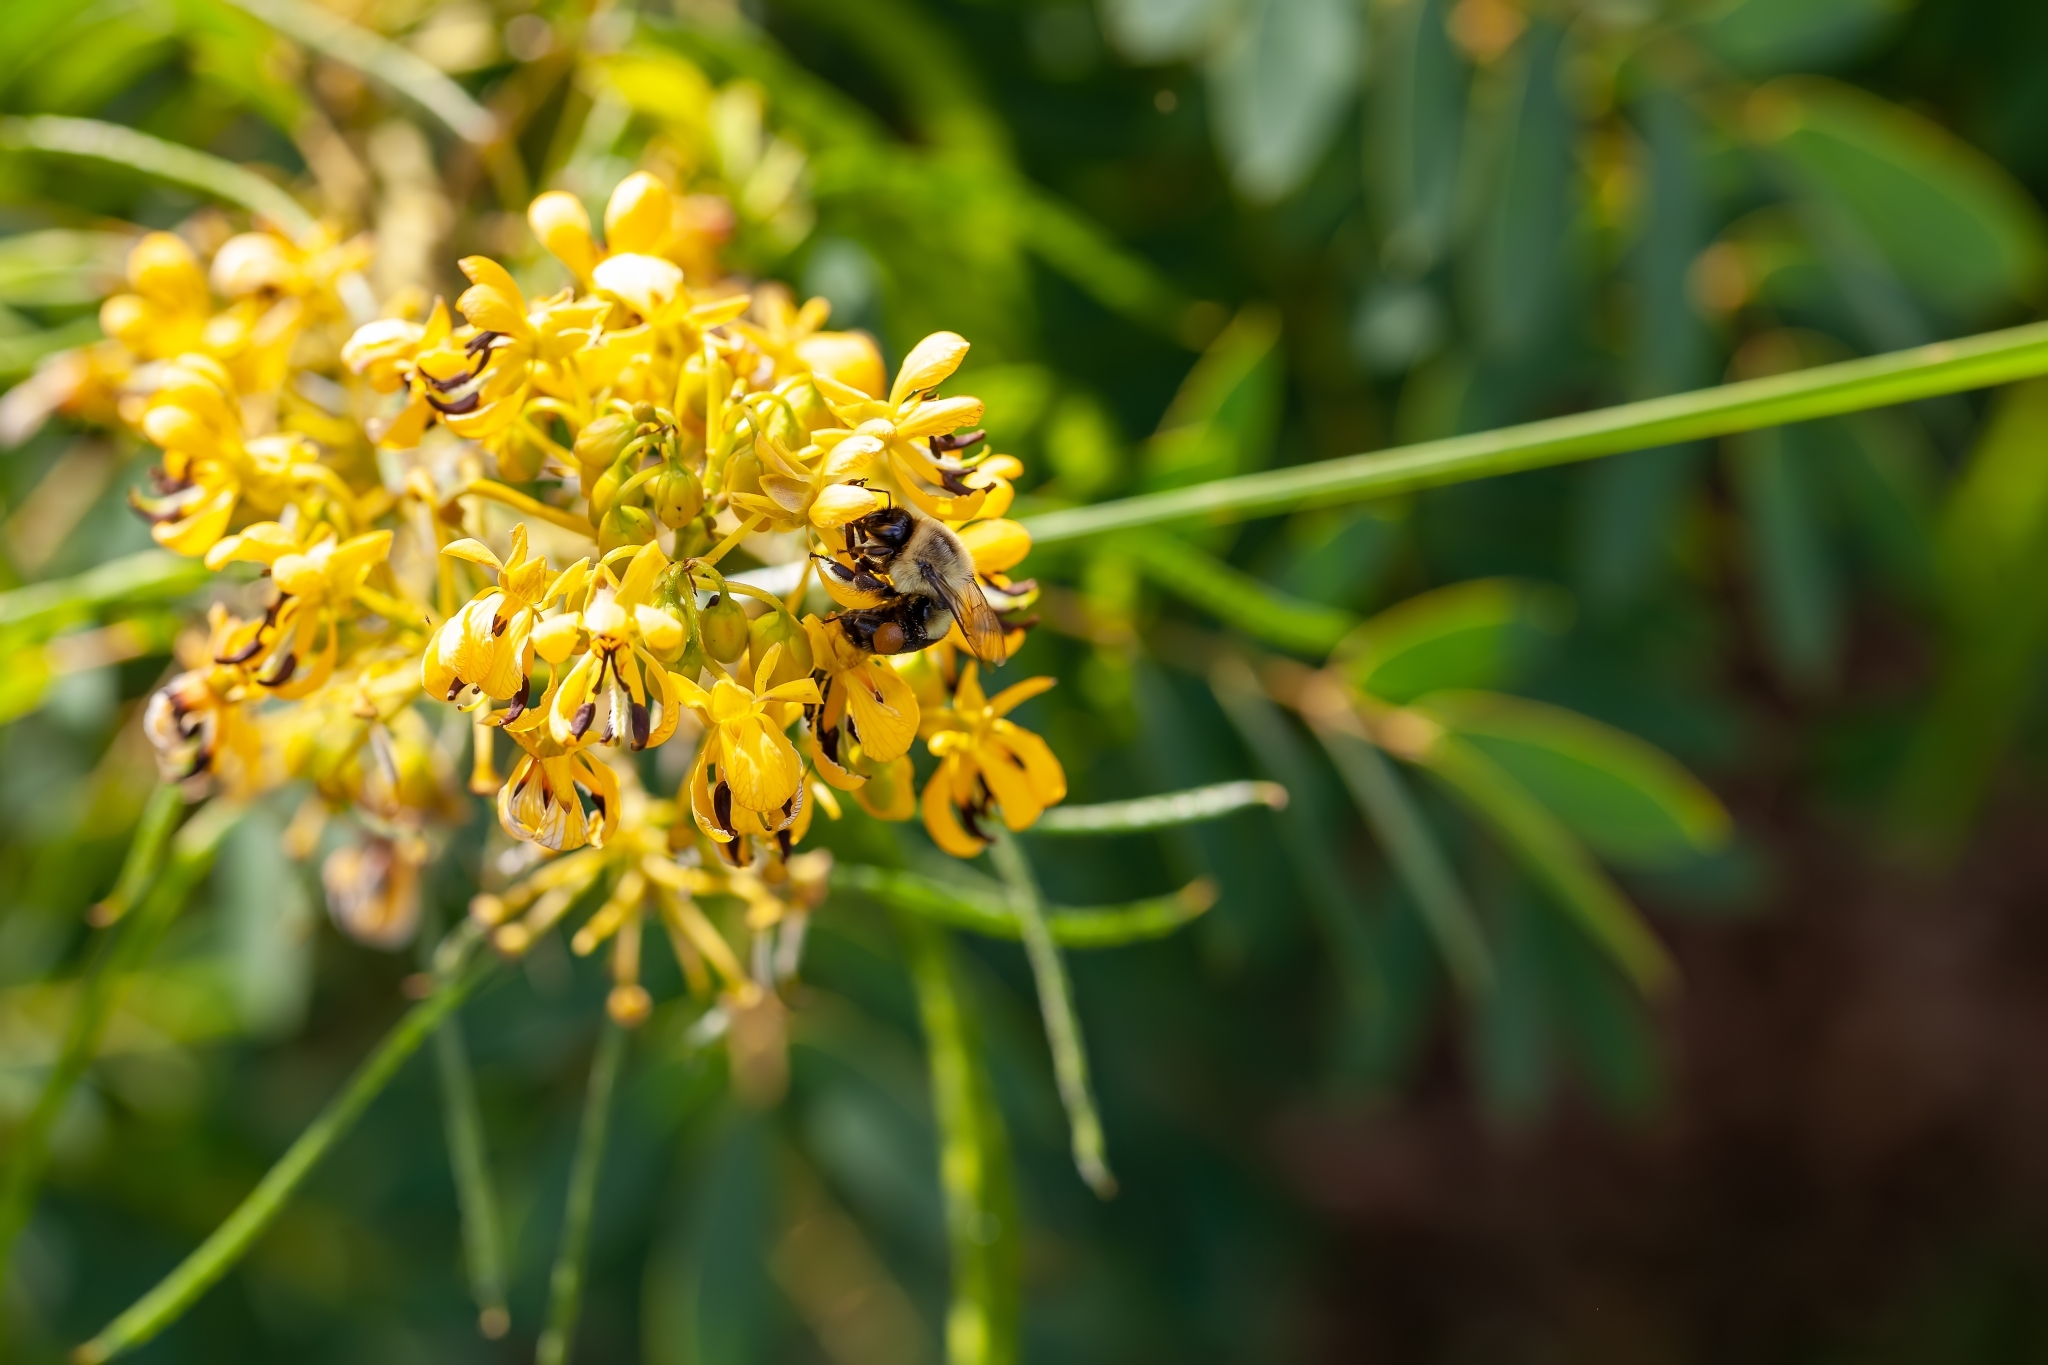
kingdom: Animalia
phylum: Arthropoda
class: Insecta
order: Hymenoptera
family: Apidae
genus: Bombus
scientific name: Bombus impatiens
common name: Common eastern bumble bee
